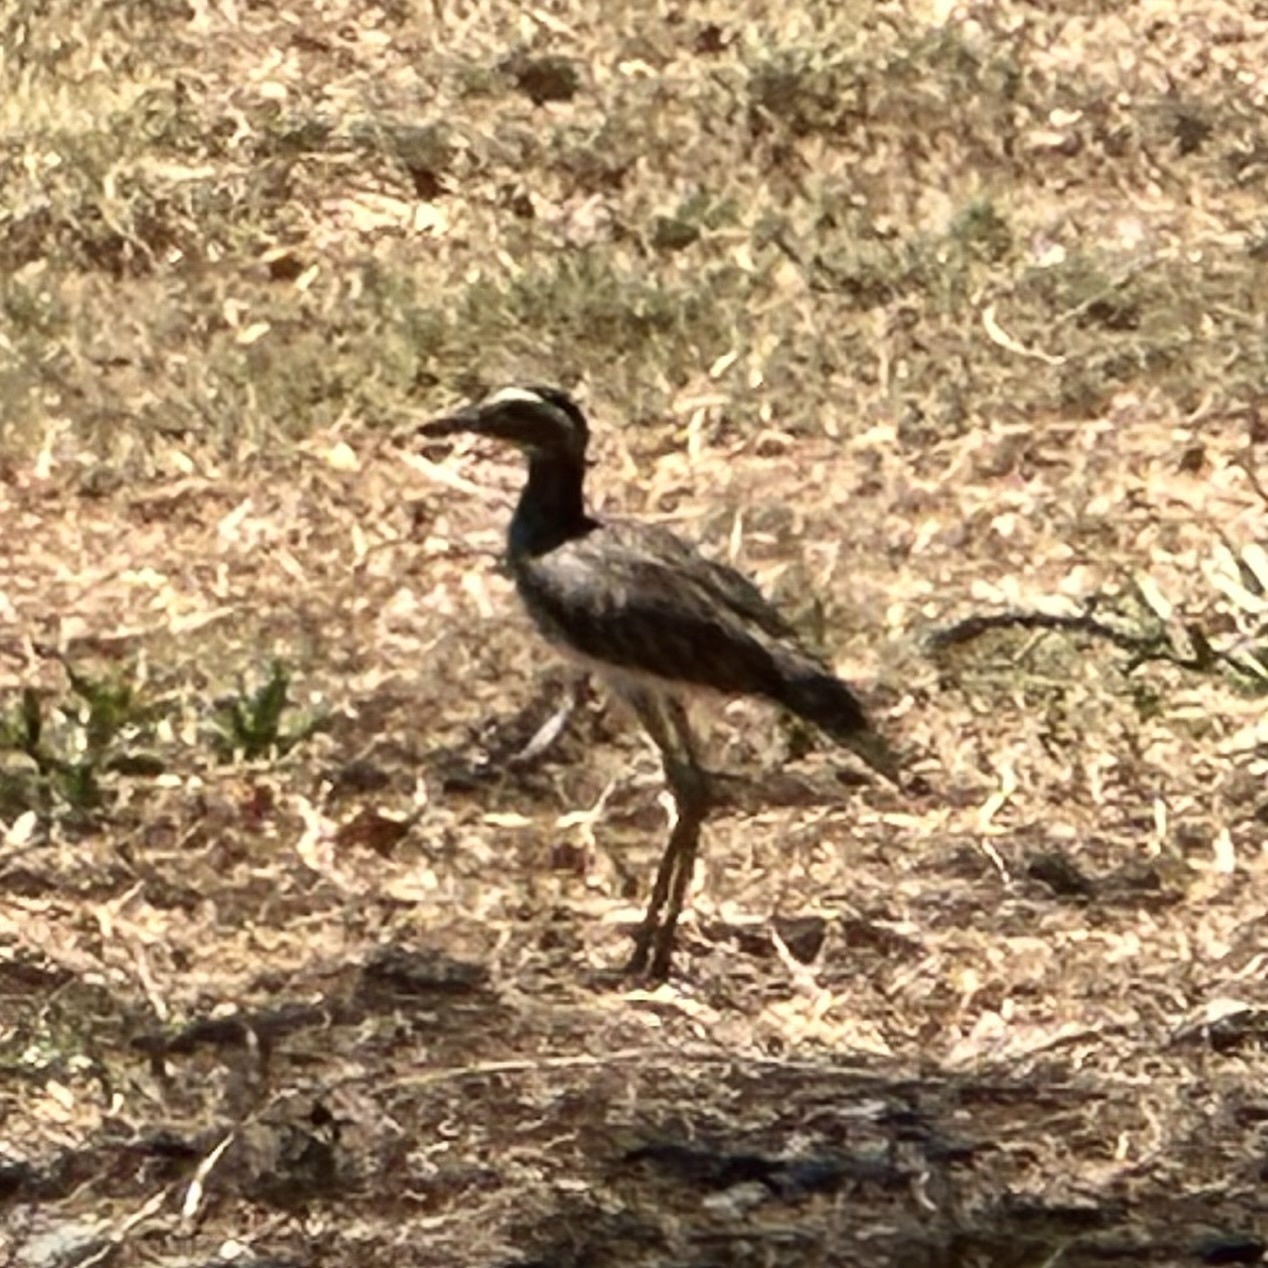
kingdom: Animalia
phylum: Chordata
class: Aves
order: Charadriiformes
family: Burhinidae
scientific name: Burhinidae
